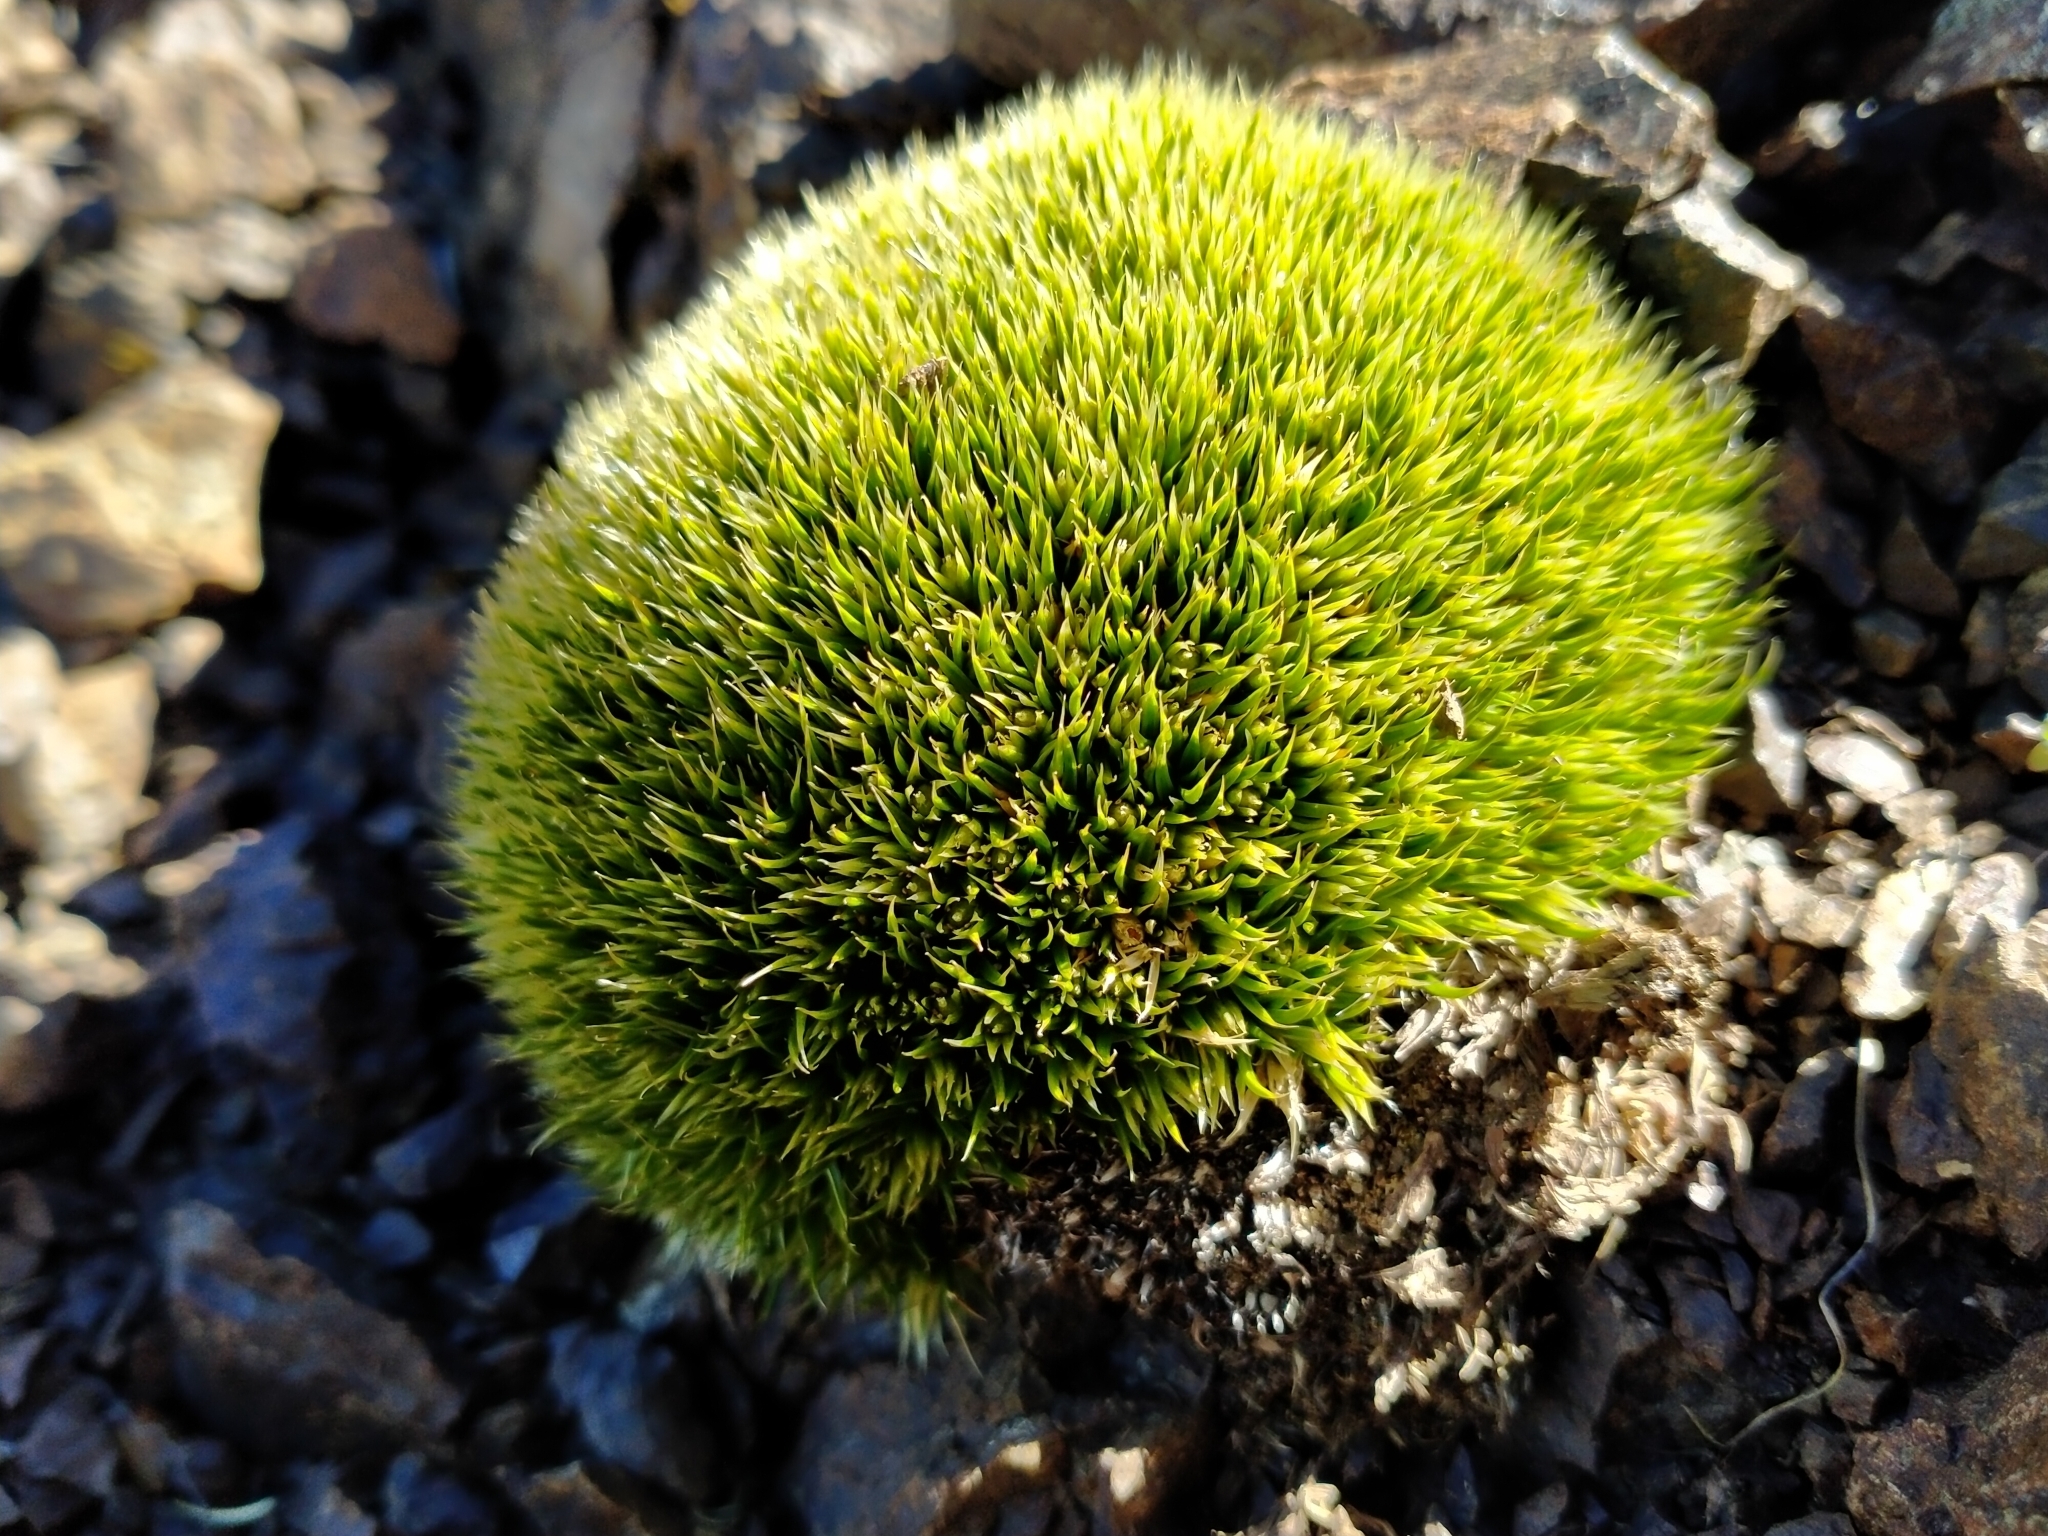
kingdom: Plantae
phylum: Tracheophyta
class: Magnoliopsida
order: Caryophyllales
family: Caryophyllaceae
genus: Colobanthus
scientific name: Colobanthus buchananii
